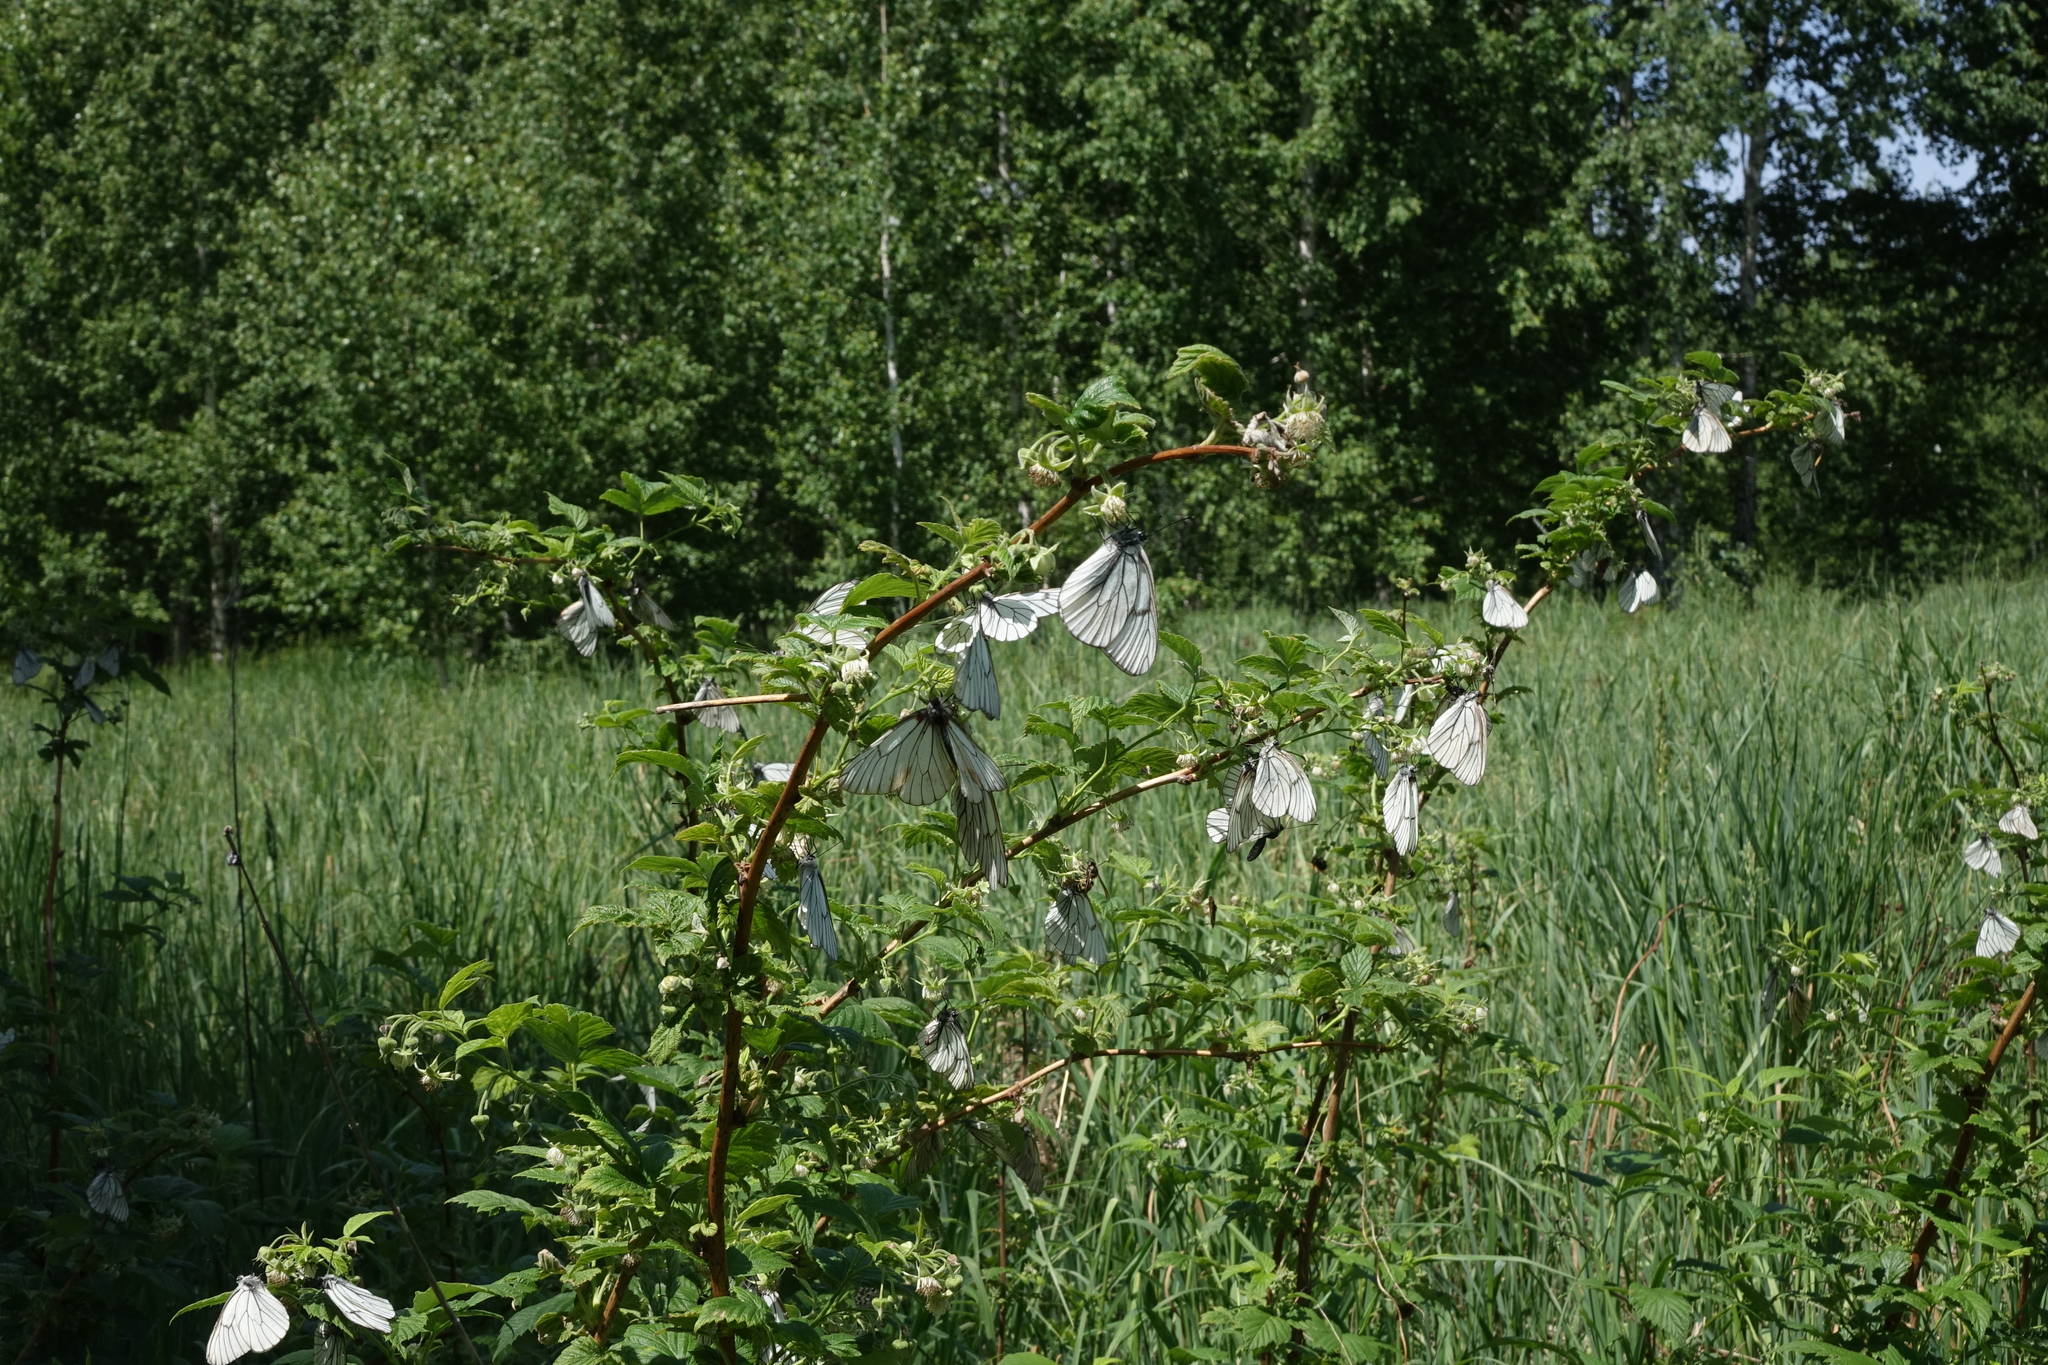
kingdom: Plantae
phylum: Tracheophyta
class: Magnoliopsida
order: Rosales
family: Rosaceae
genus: Rubus
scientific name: Rubus idaeus
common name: Raspberry
